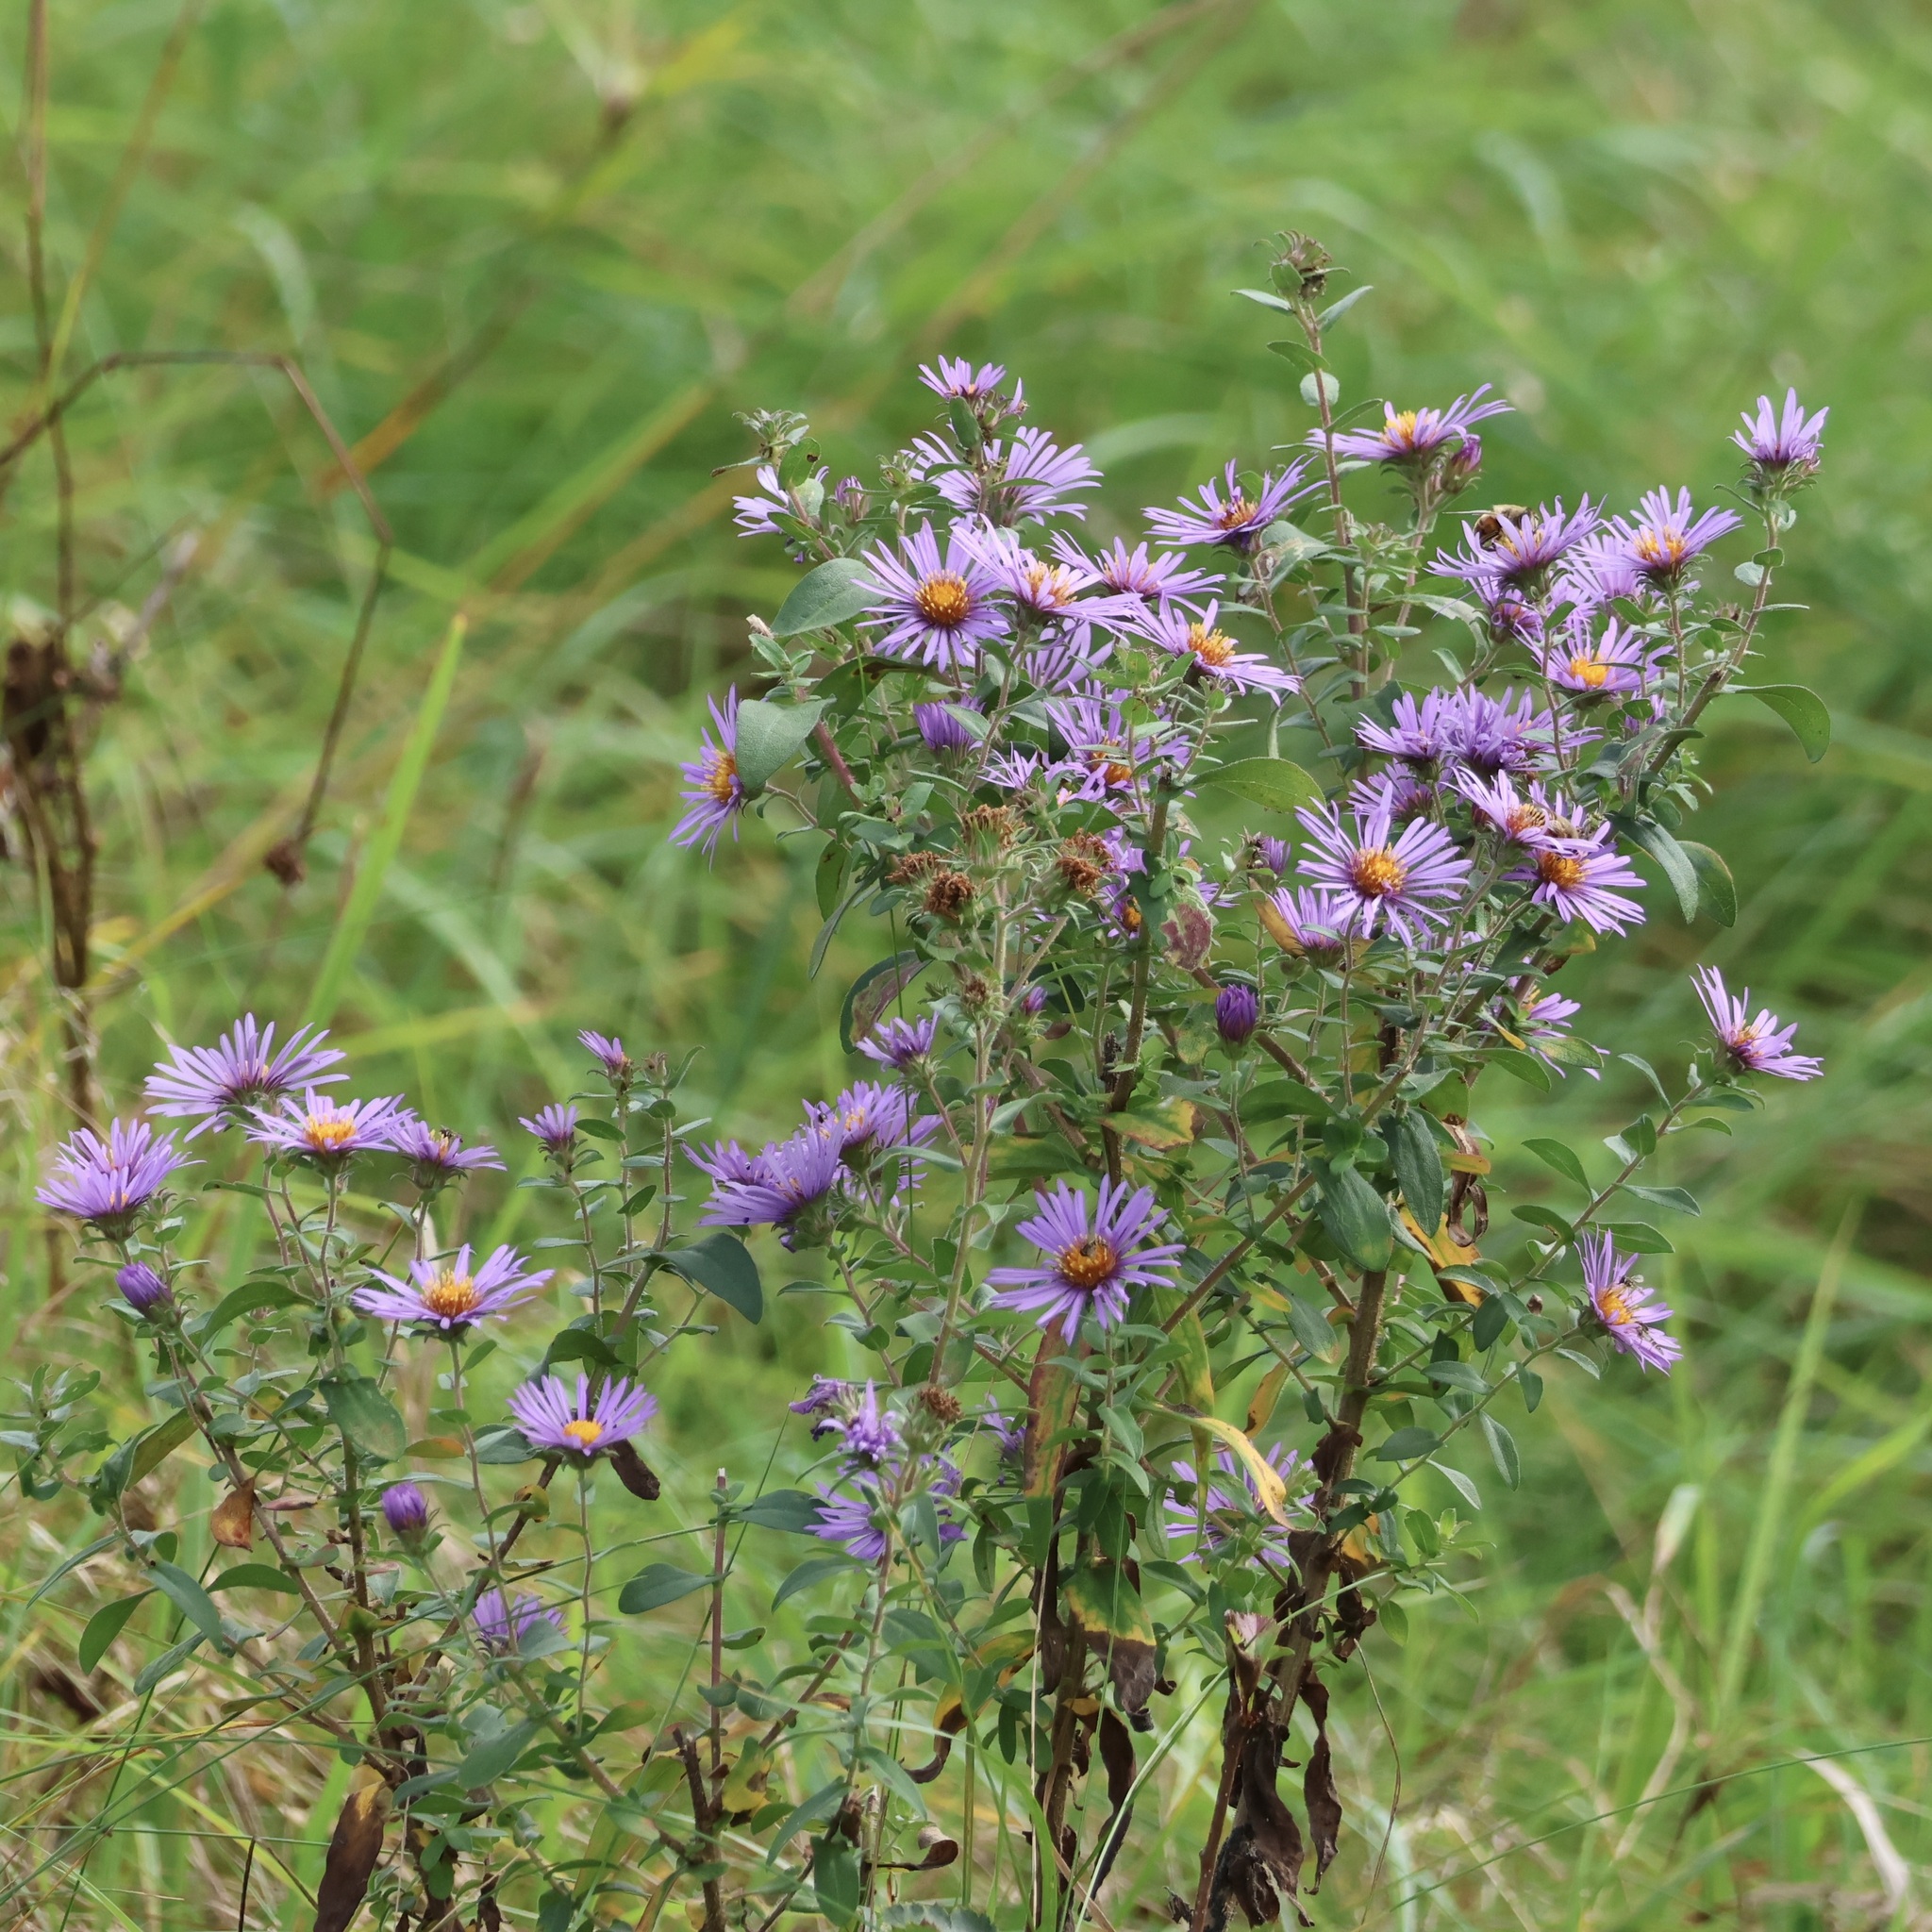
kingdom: Plantae
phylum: Tracheophyta
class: Magnoliopsida
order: Asterales
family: Asteraceae
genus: Symphyotrichum
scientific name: Symphyotrichum novae-angliae
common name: Michaelmas daisy
